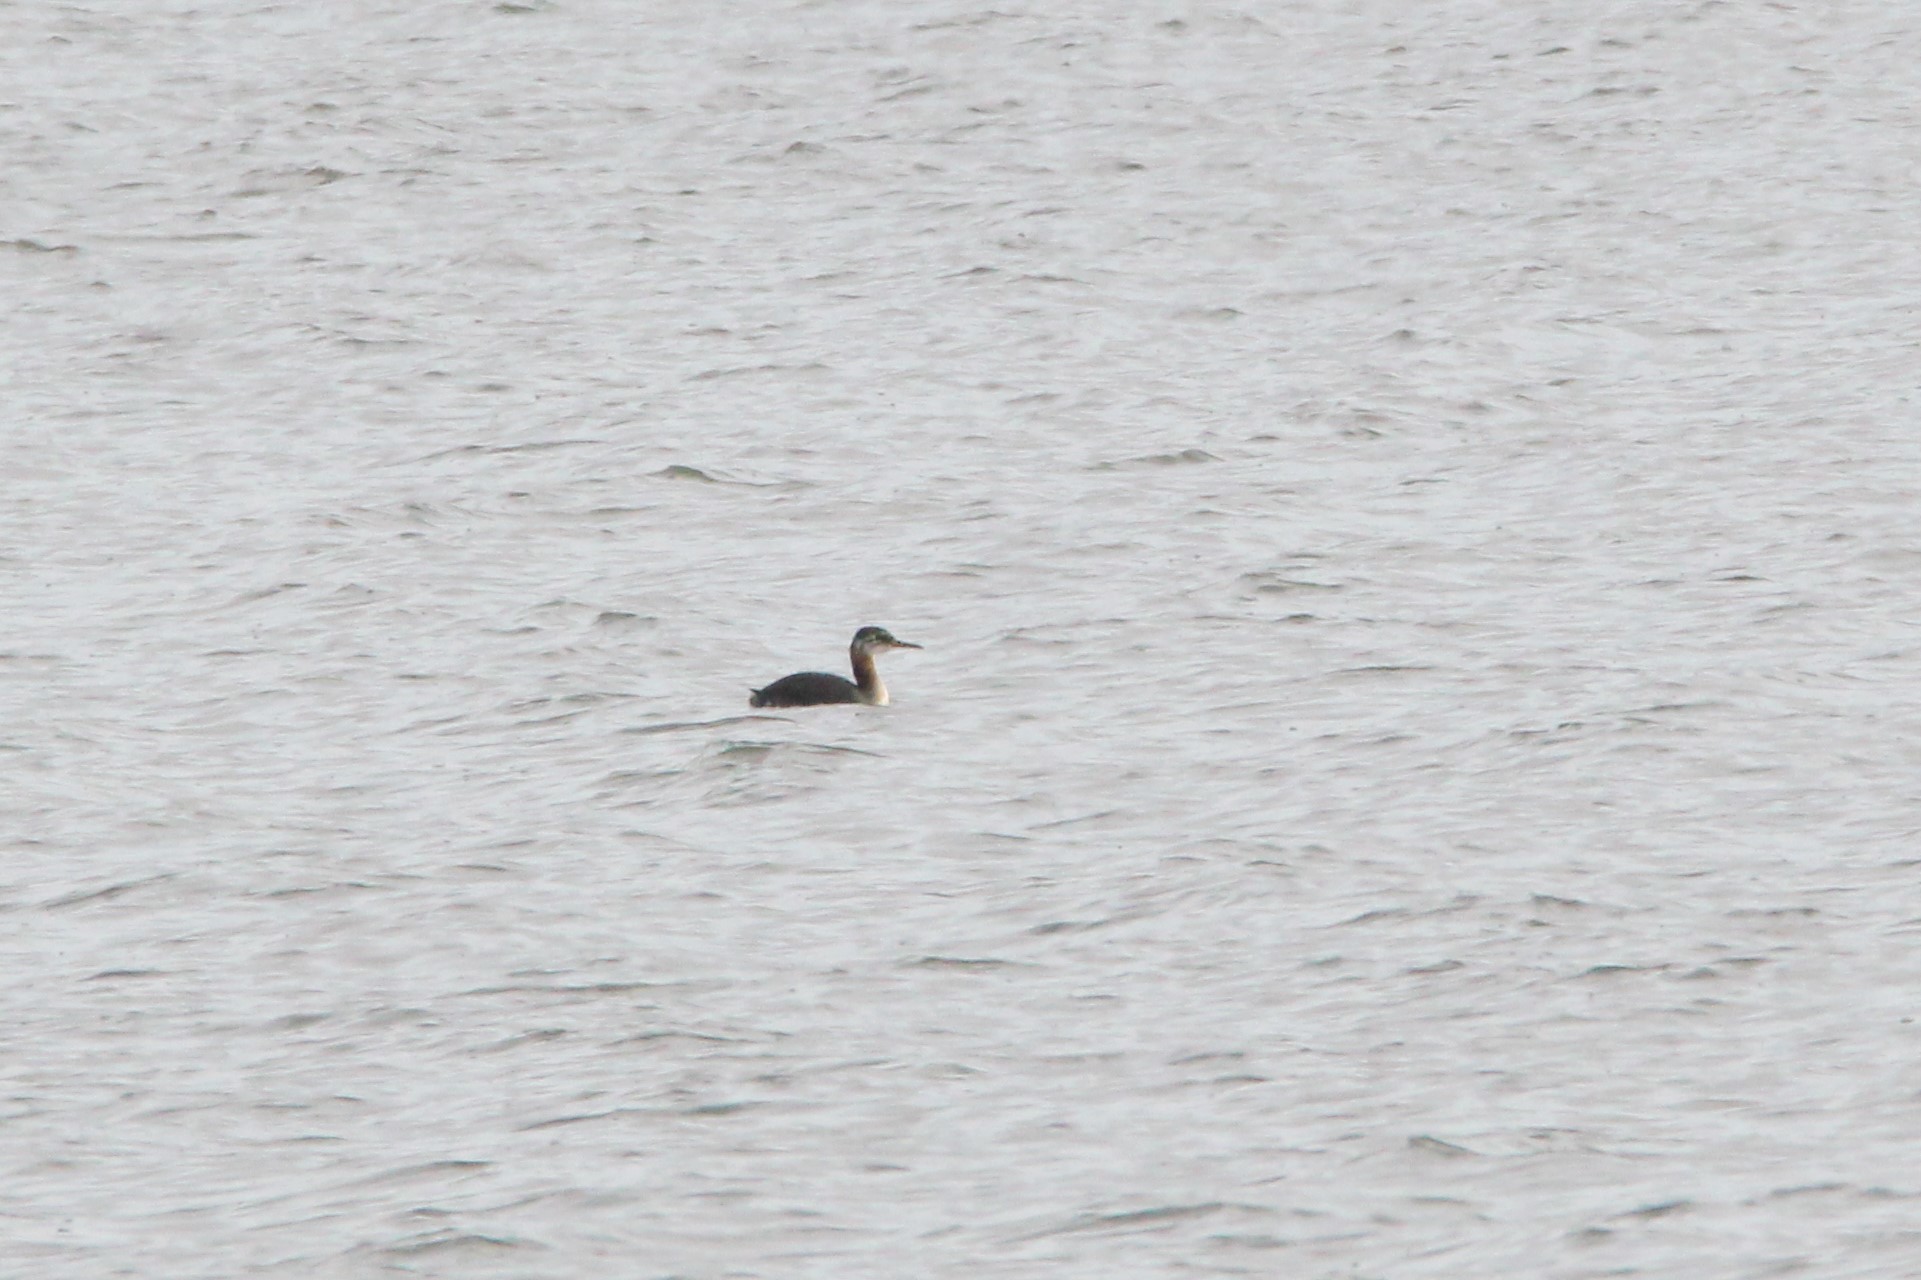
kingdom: Animalia
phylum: Chordata
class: Aves
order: Podicipediformes
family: Podicipedidae
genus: Podiceps
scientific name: Podiceps grisegena
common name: Red-necked grebe
